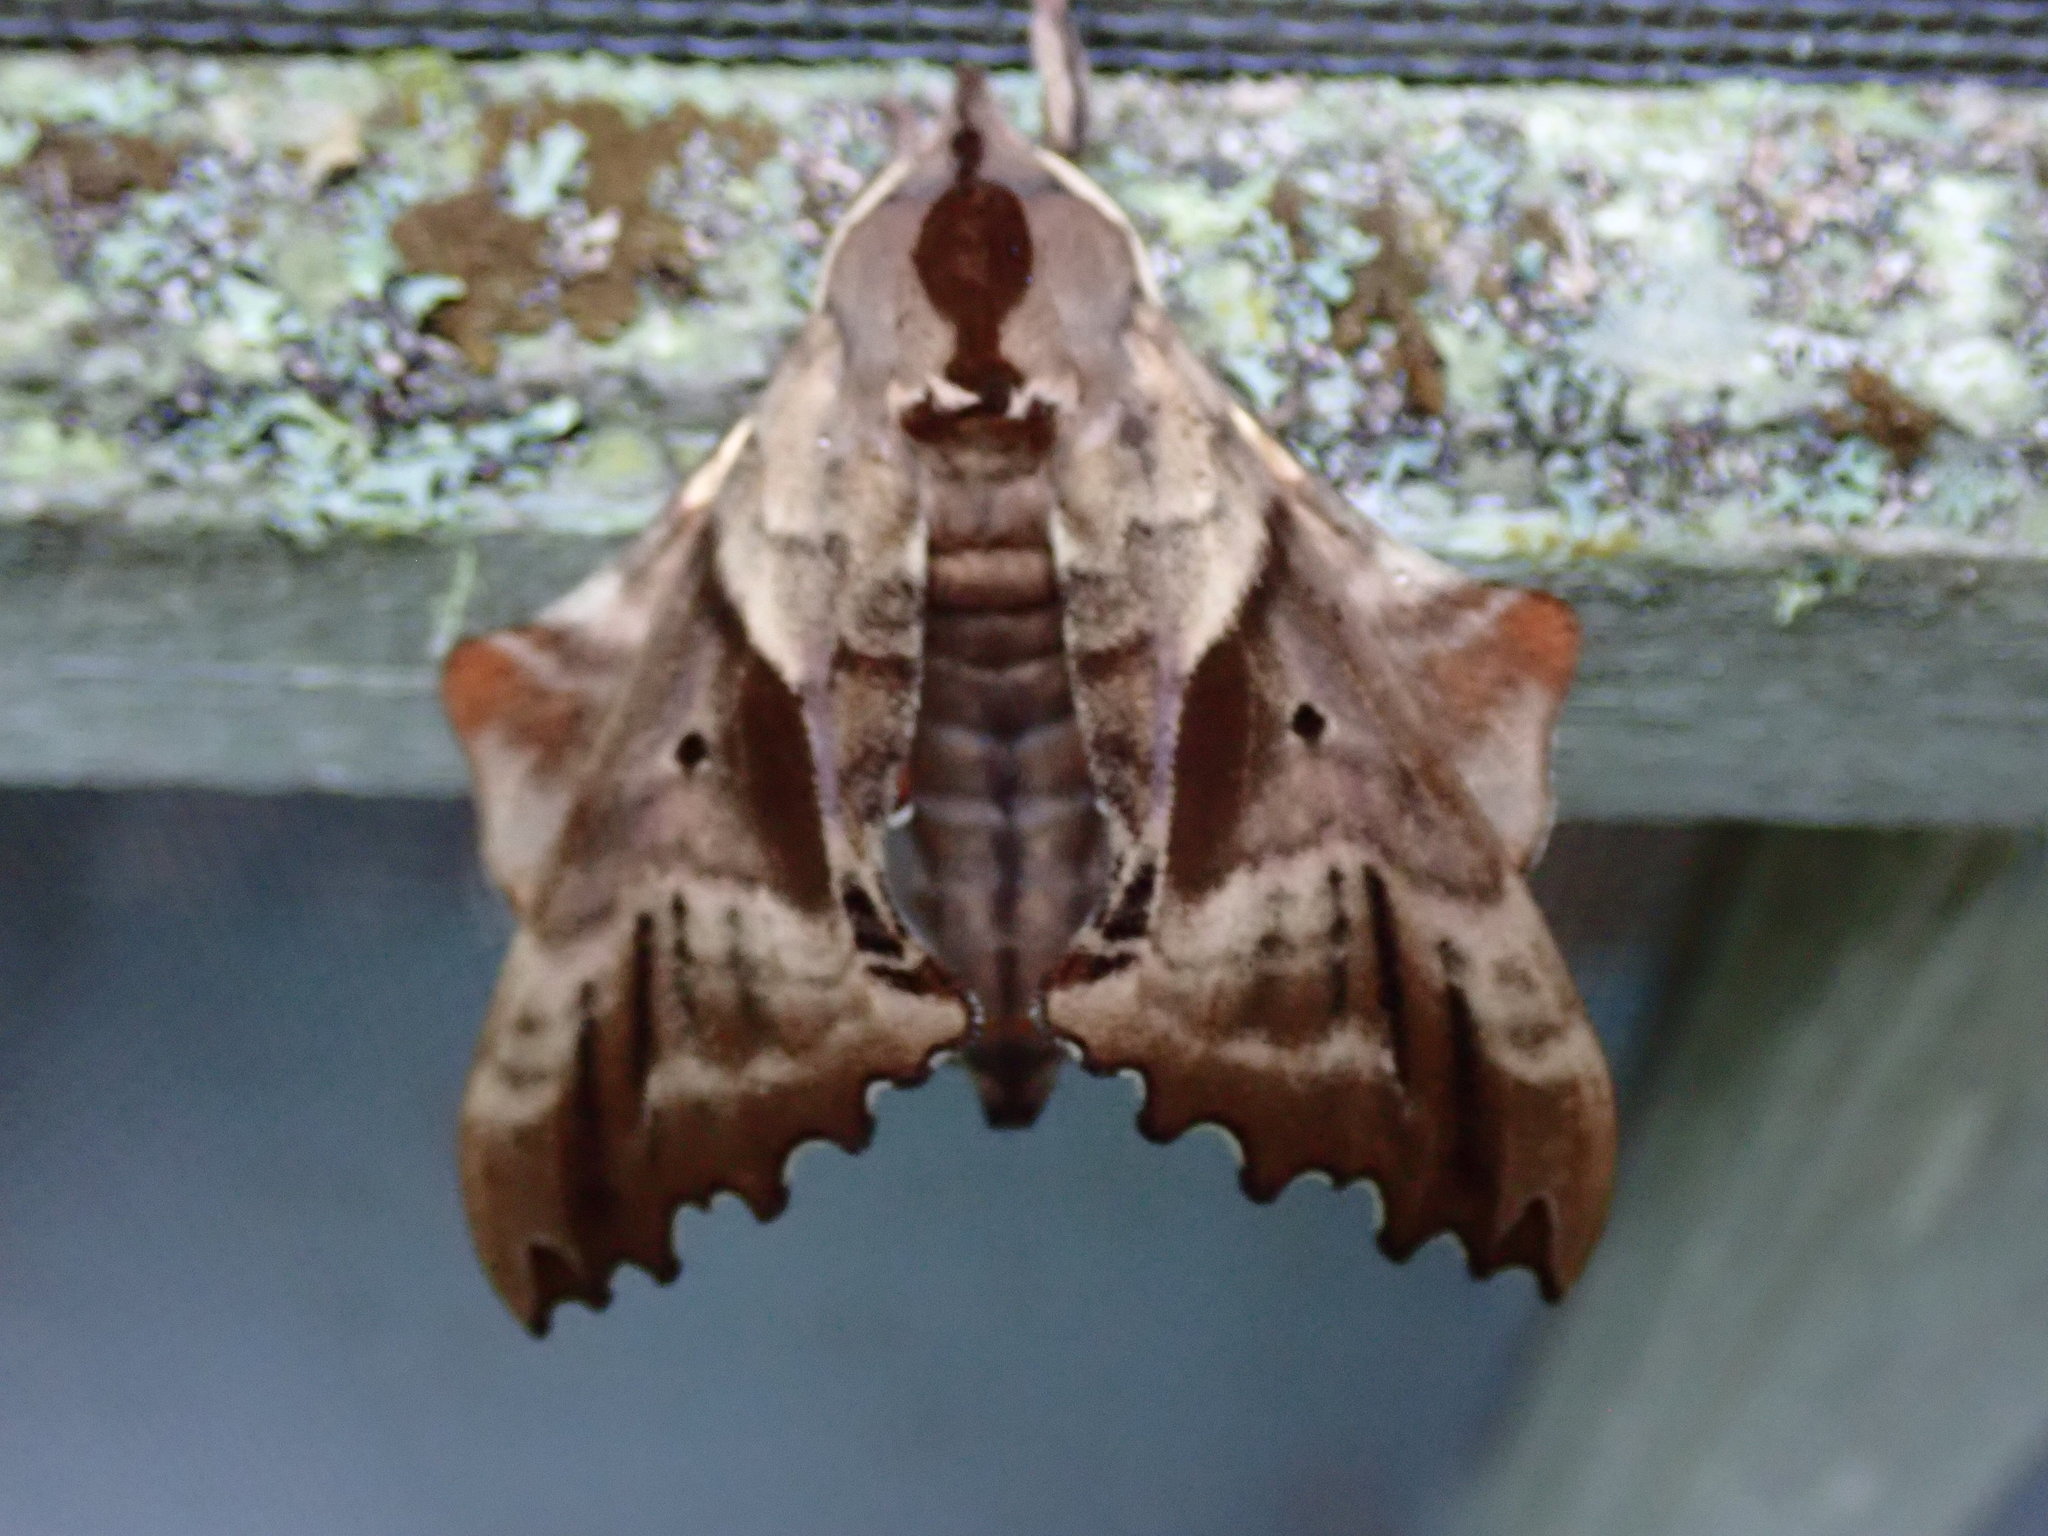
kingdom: Animalia
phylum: Arthropoda
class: Insecta
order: Lepidoptera
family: Sphingidae
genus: Paonias
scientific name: Paonias excaecata
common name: Blind-eyed sphinx
